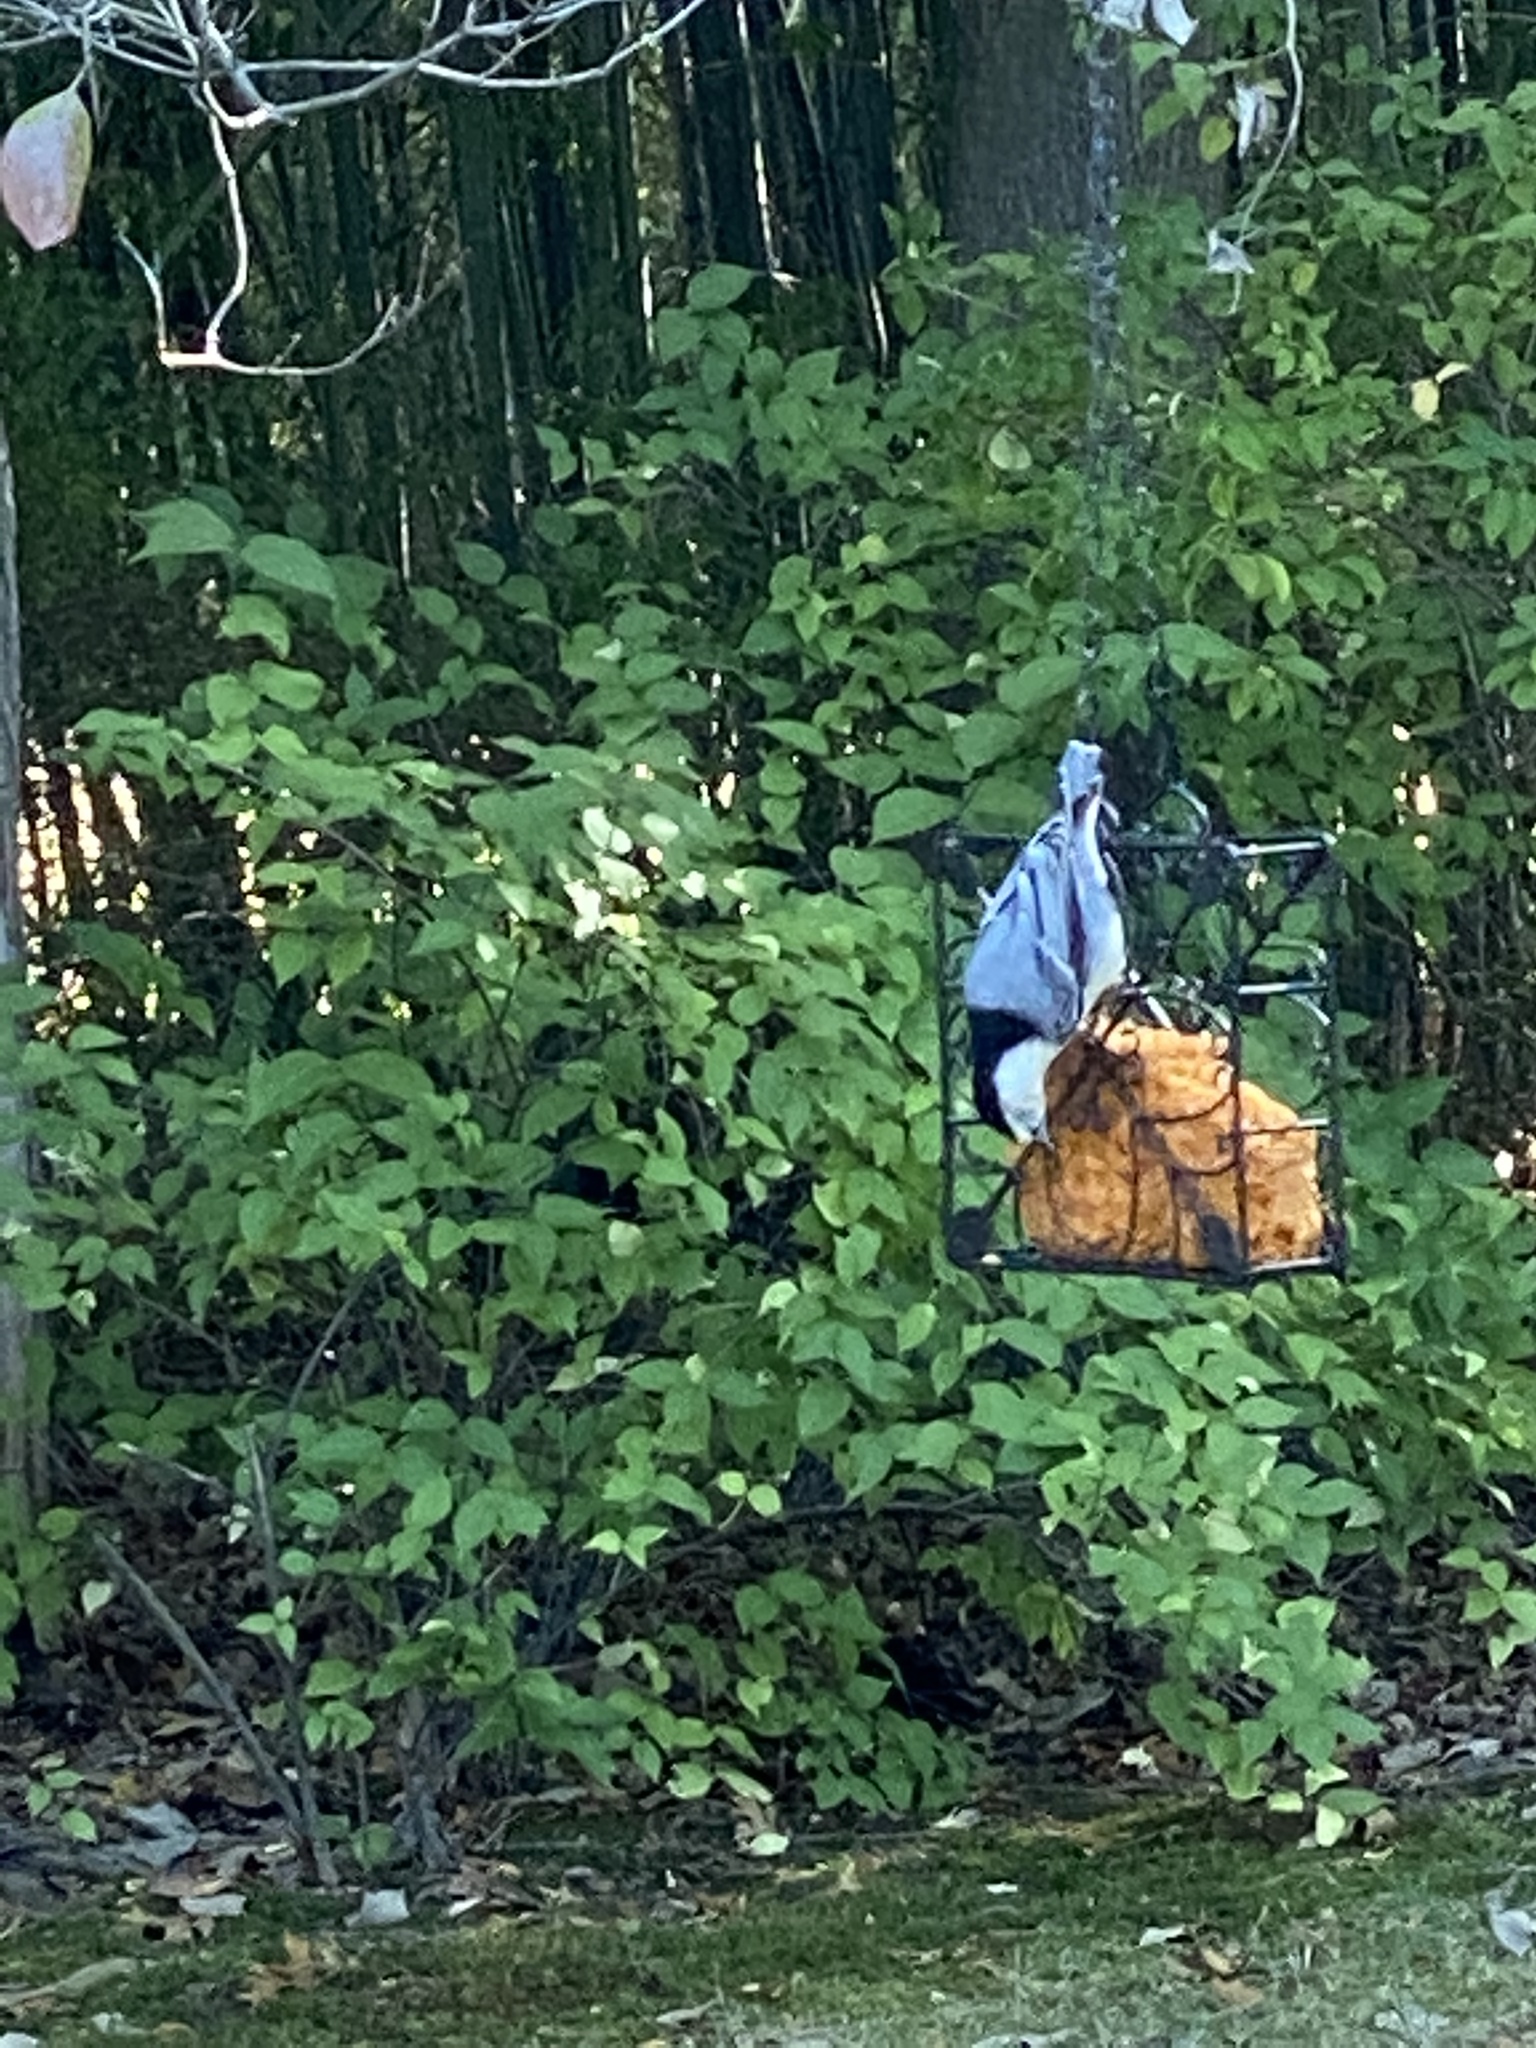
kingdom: Animalia
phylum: Chordata
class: Aves
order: Passeriformes
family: Sittidae
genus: Sitta
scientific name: Sitta carolinensis
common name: White-breasted nuthatch
